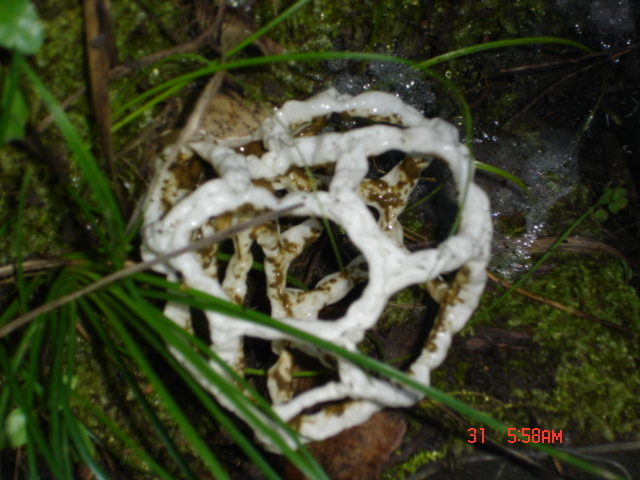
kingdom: Fungi
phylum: Basidiomycota
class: Agaricomycetes
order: Phallales
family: Phallaceae
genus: Ileodictyon
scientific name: Ileodictyon cibarium
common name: Basket fungus
